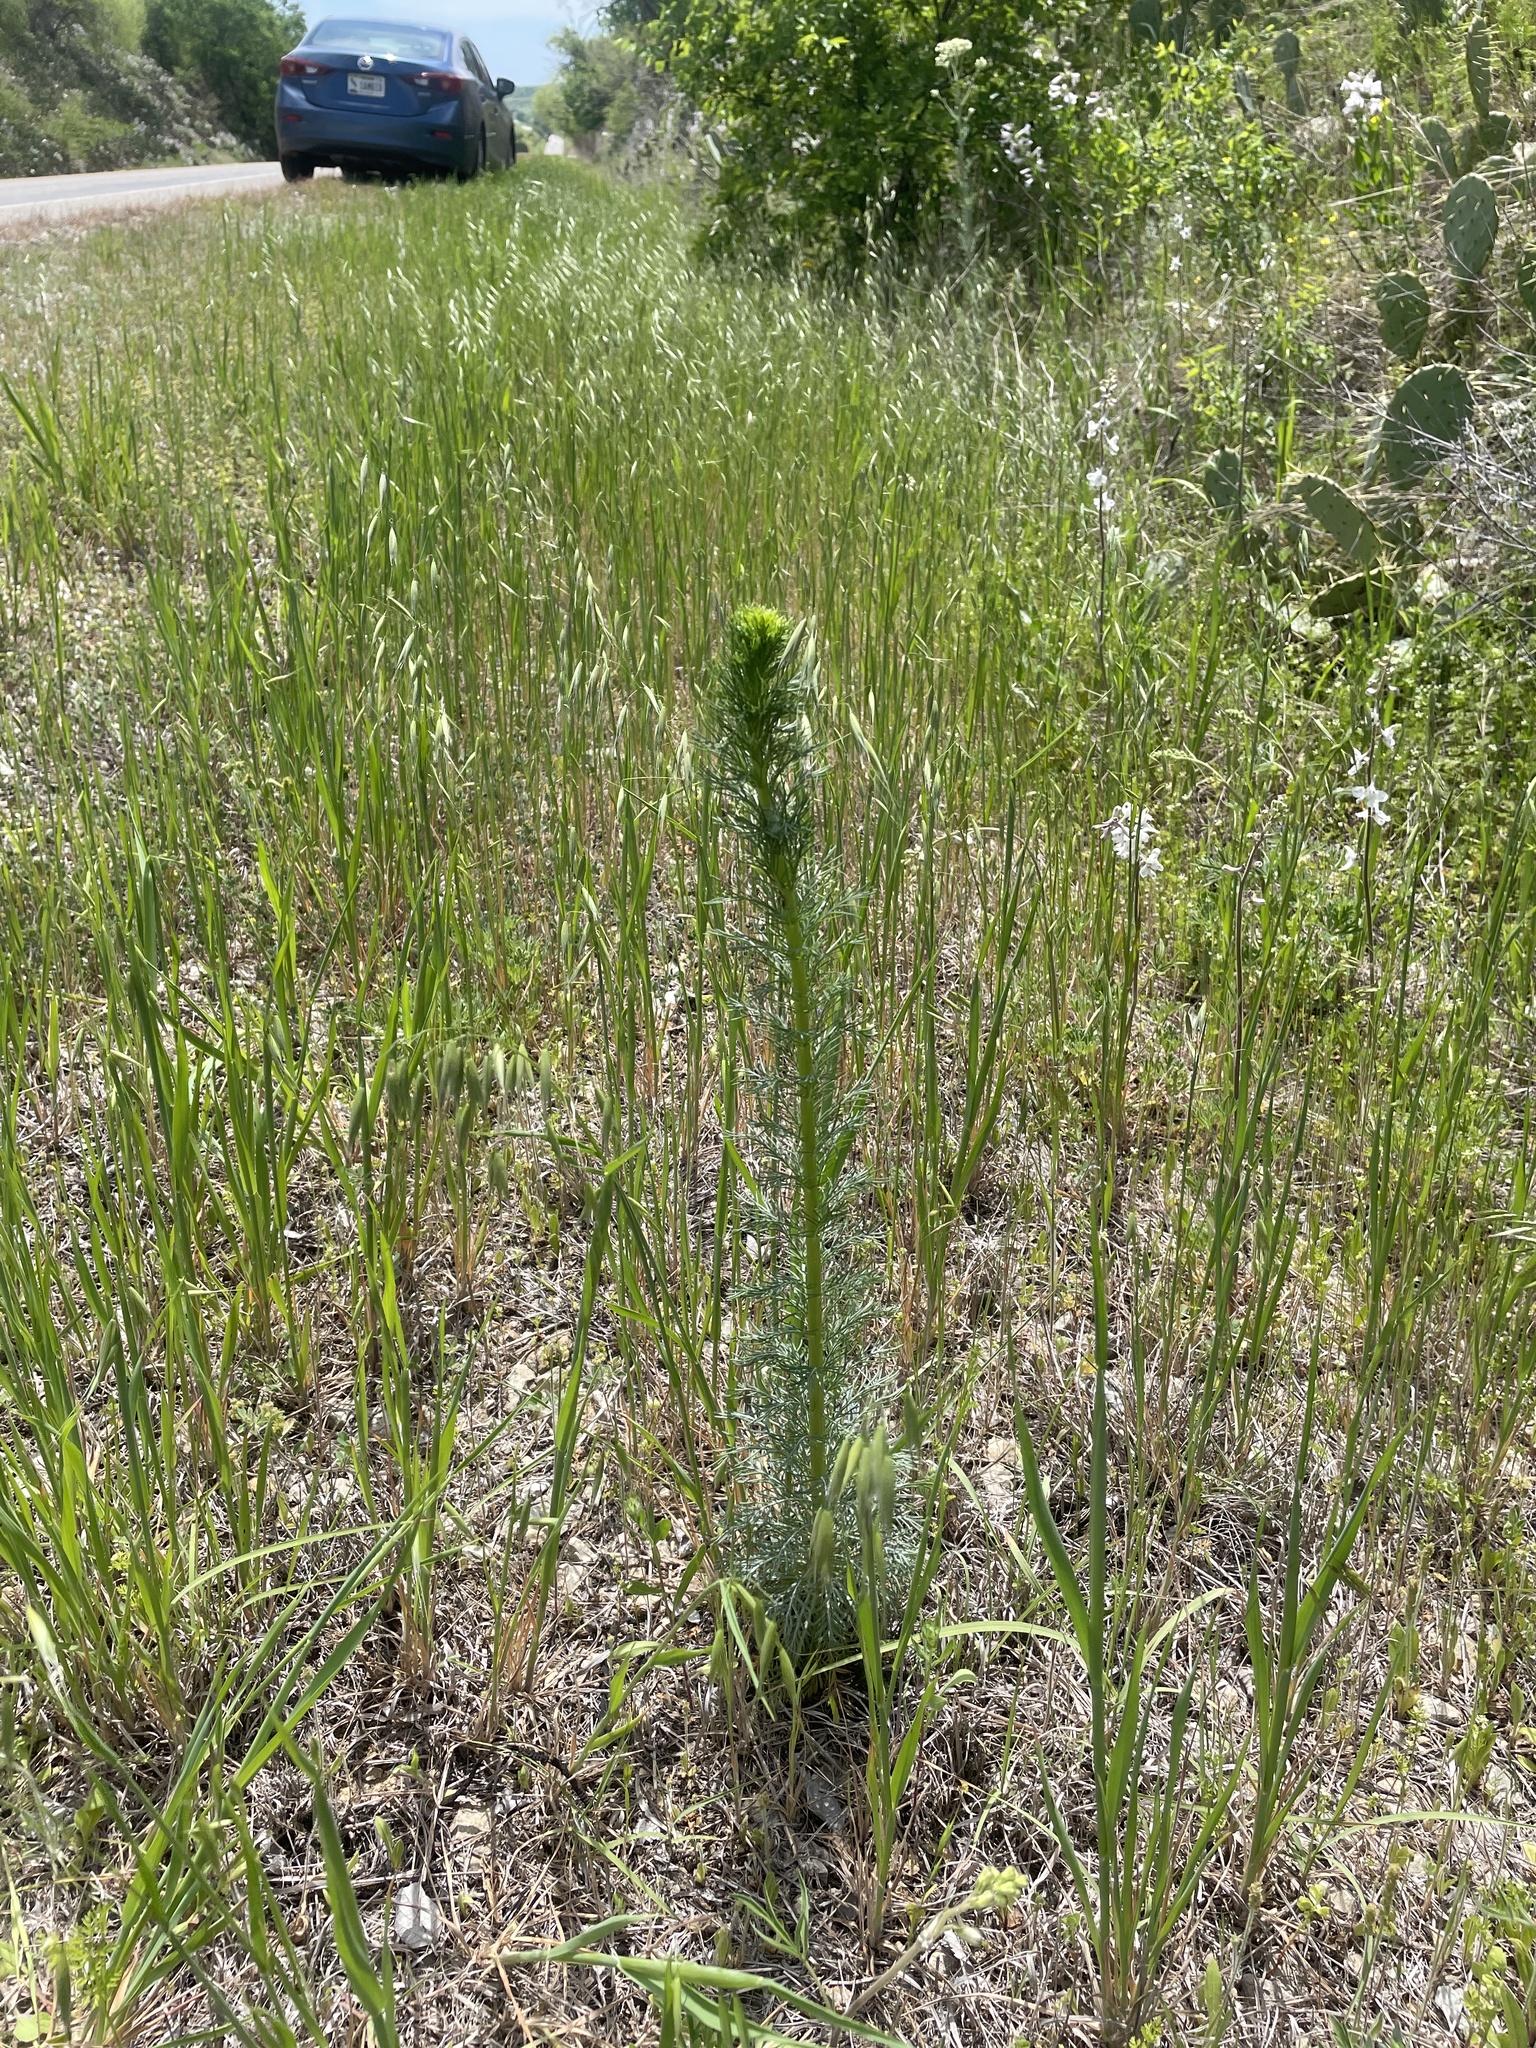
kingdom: Plantae
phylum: Tracheophyta
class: Magnoliopsida
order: Ericales
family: Polemoniaceae
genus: Ipomopsis
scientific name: Ipomopsis rubra
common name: Skyrocket
